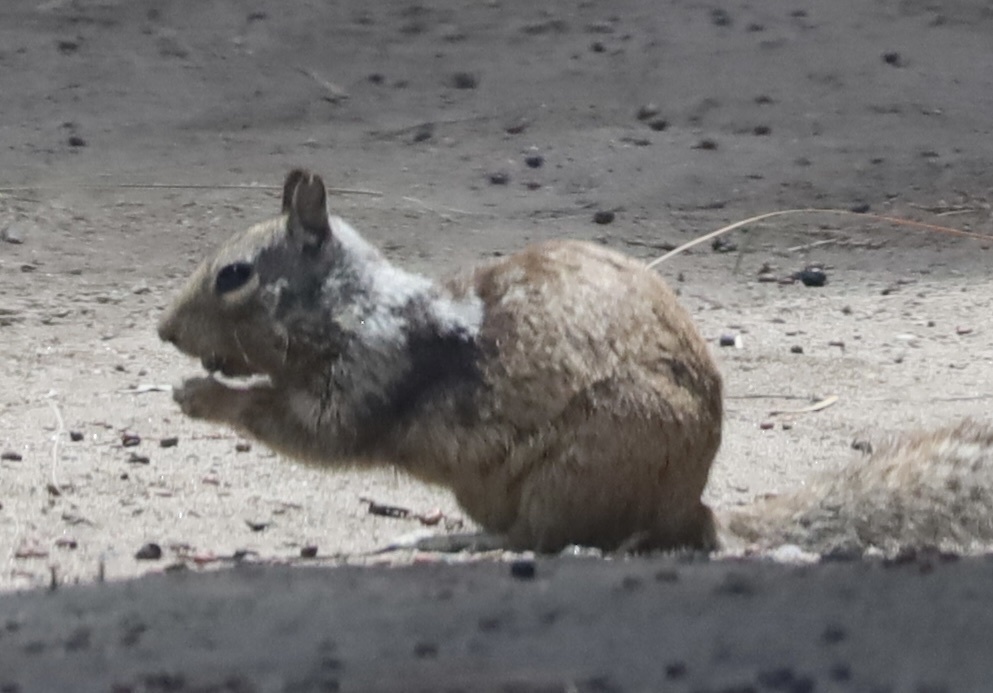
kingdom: Animalia
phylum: Chordata
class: Mammalia
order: Rodentia
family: Sciuridae
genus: Otospermophilus
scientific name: Otospermophilus beecheyi
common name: California ground squirrel
